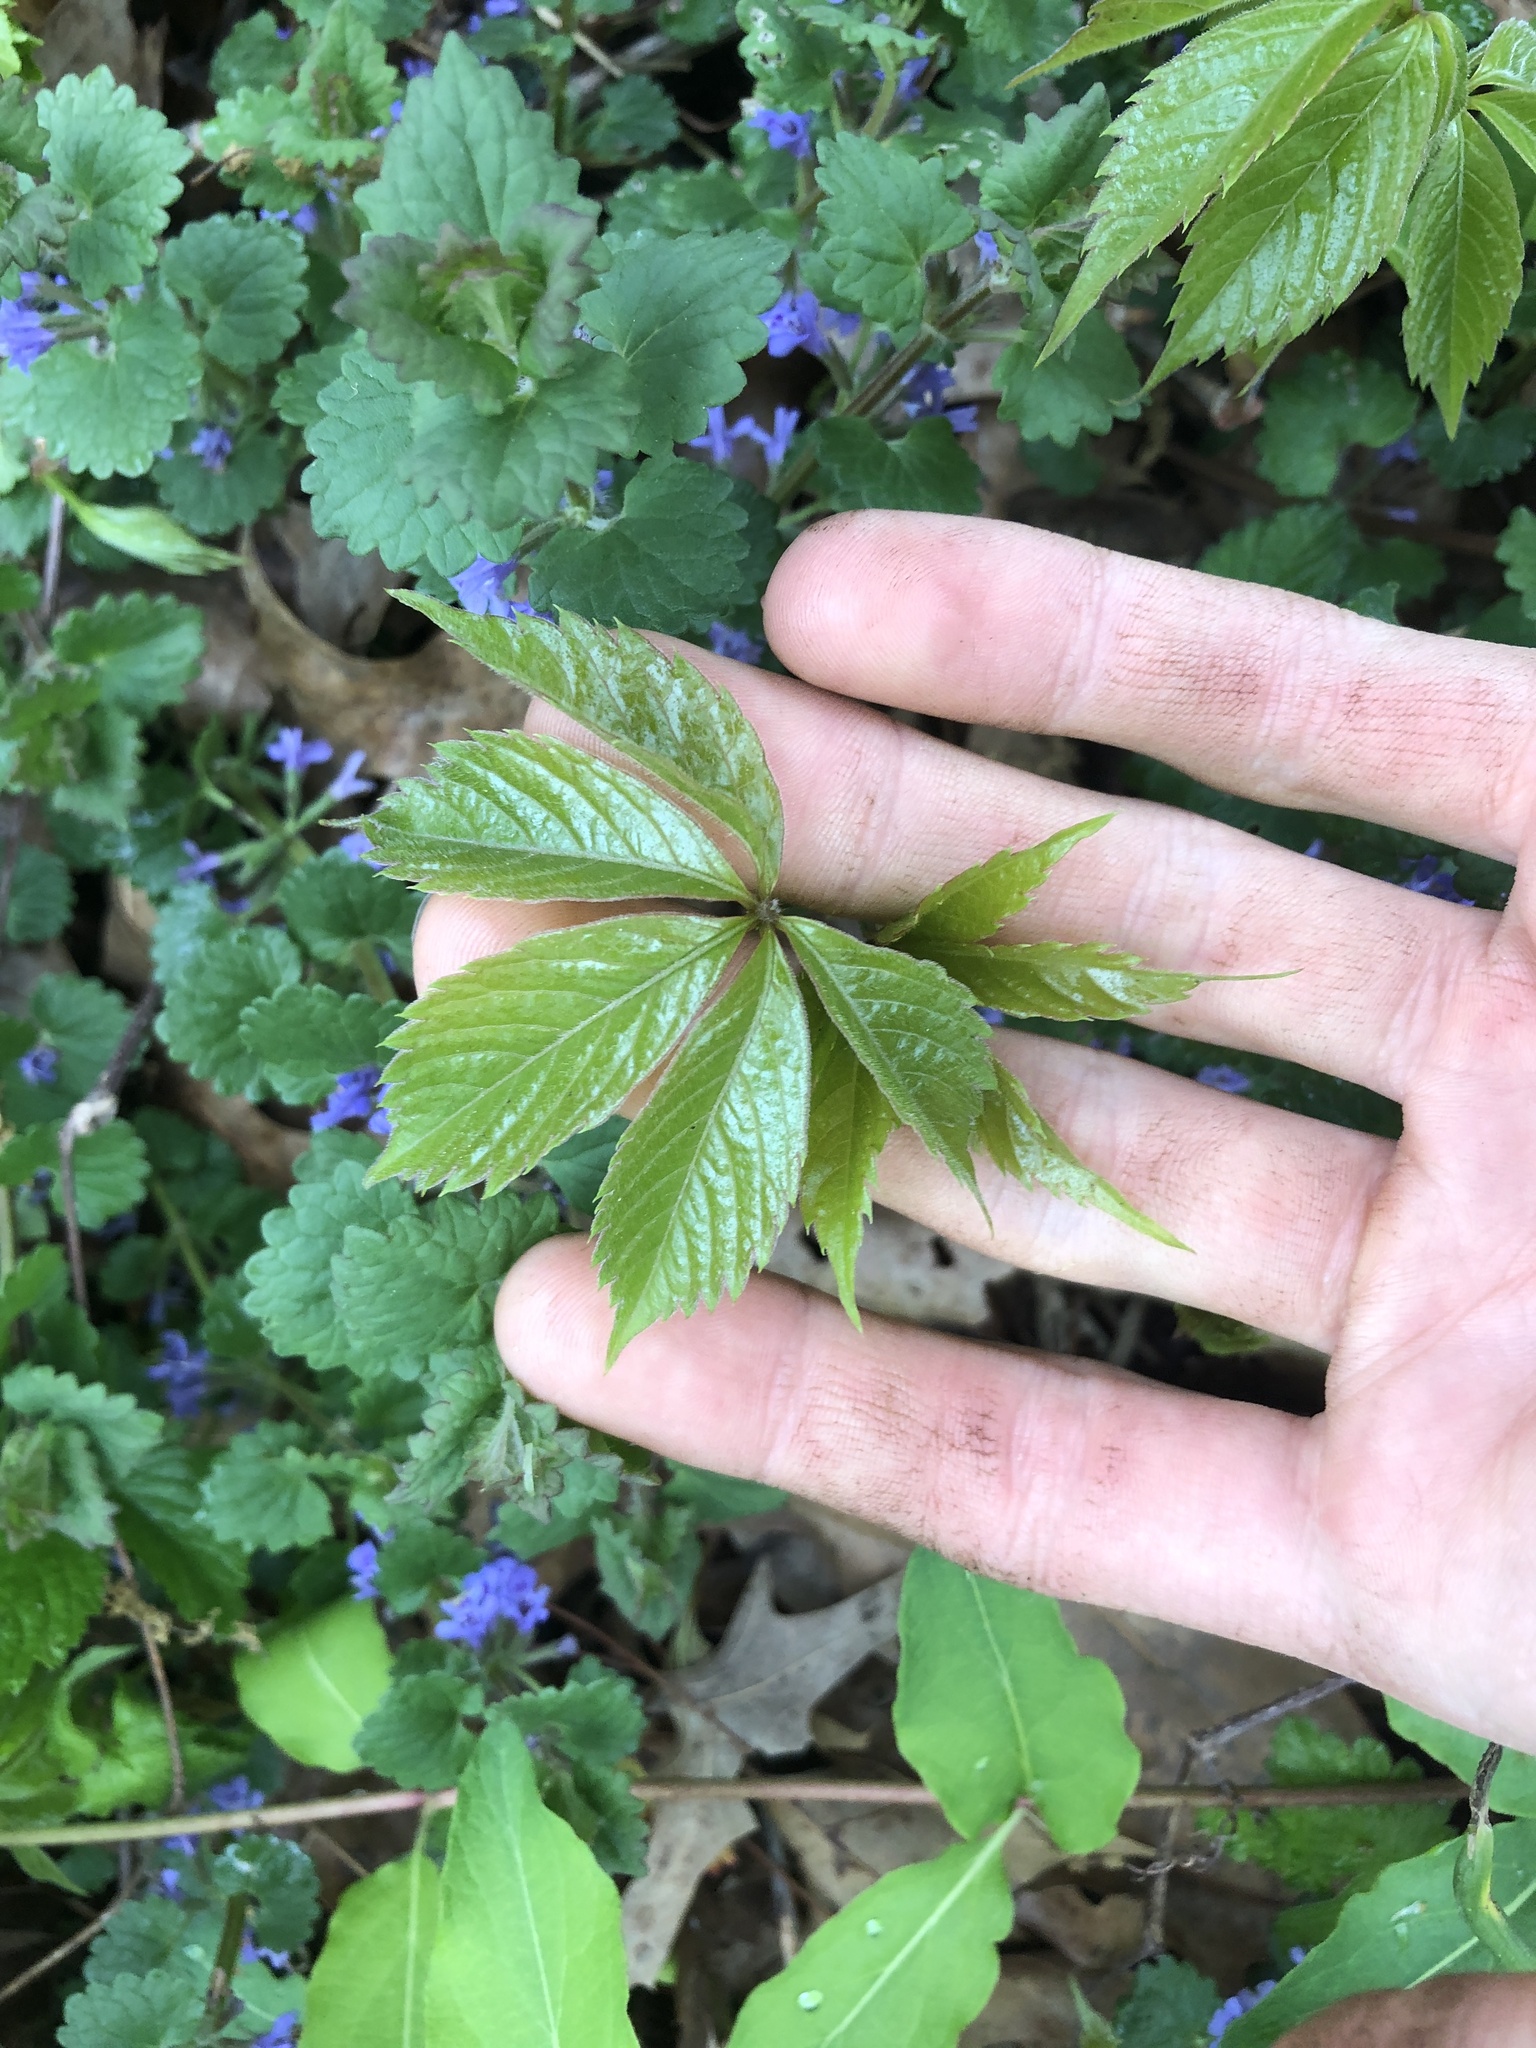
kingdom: Plantae
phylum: Tracheophyta
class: Magnoliopsida
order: Vitales
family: Vitaceae
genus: Parthenocissus
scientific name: Parthenocissus quinquefolia
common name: Virginia-creeper
